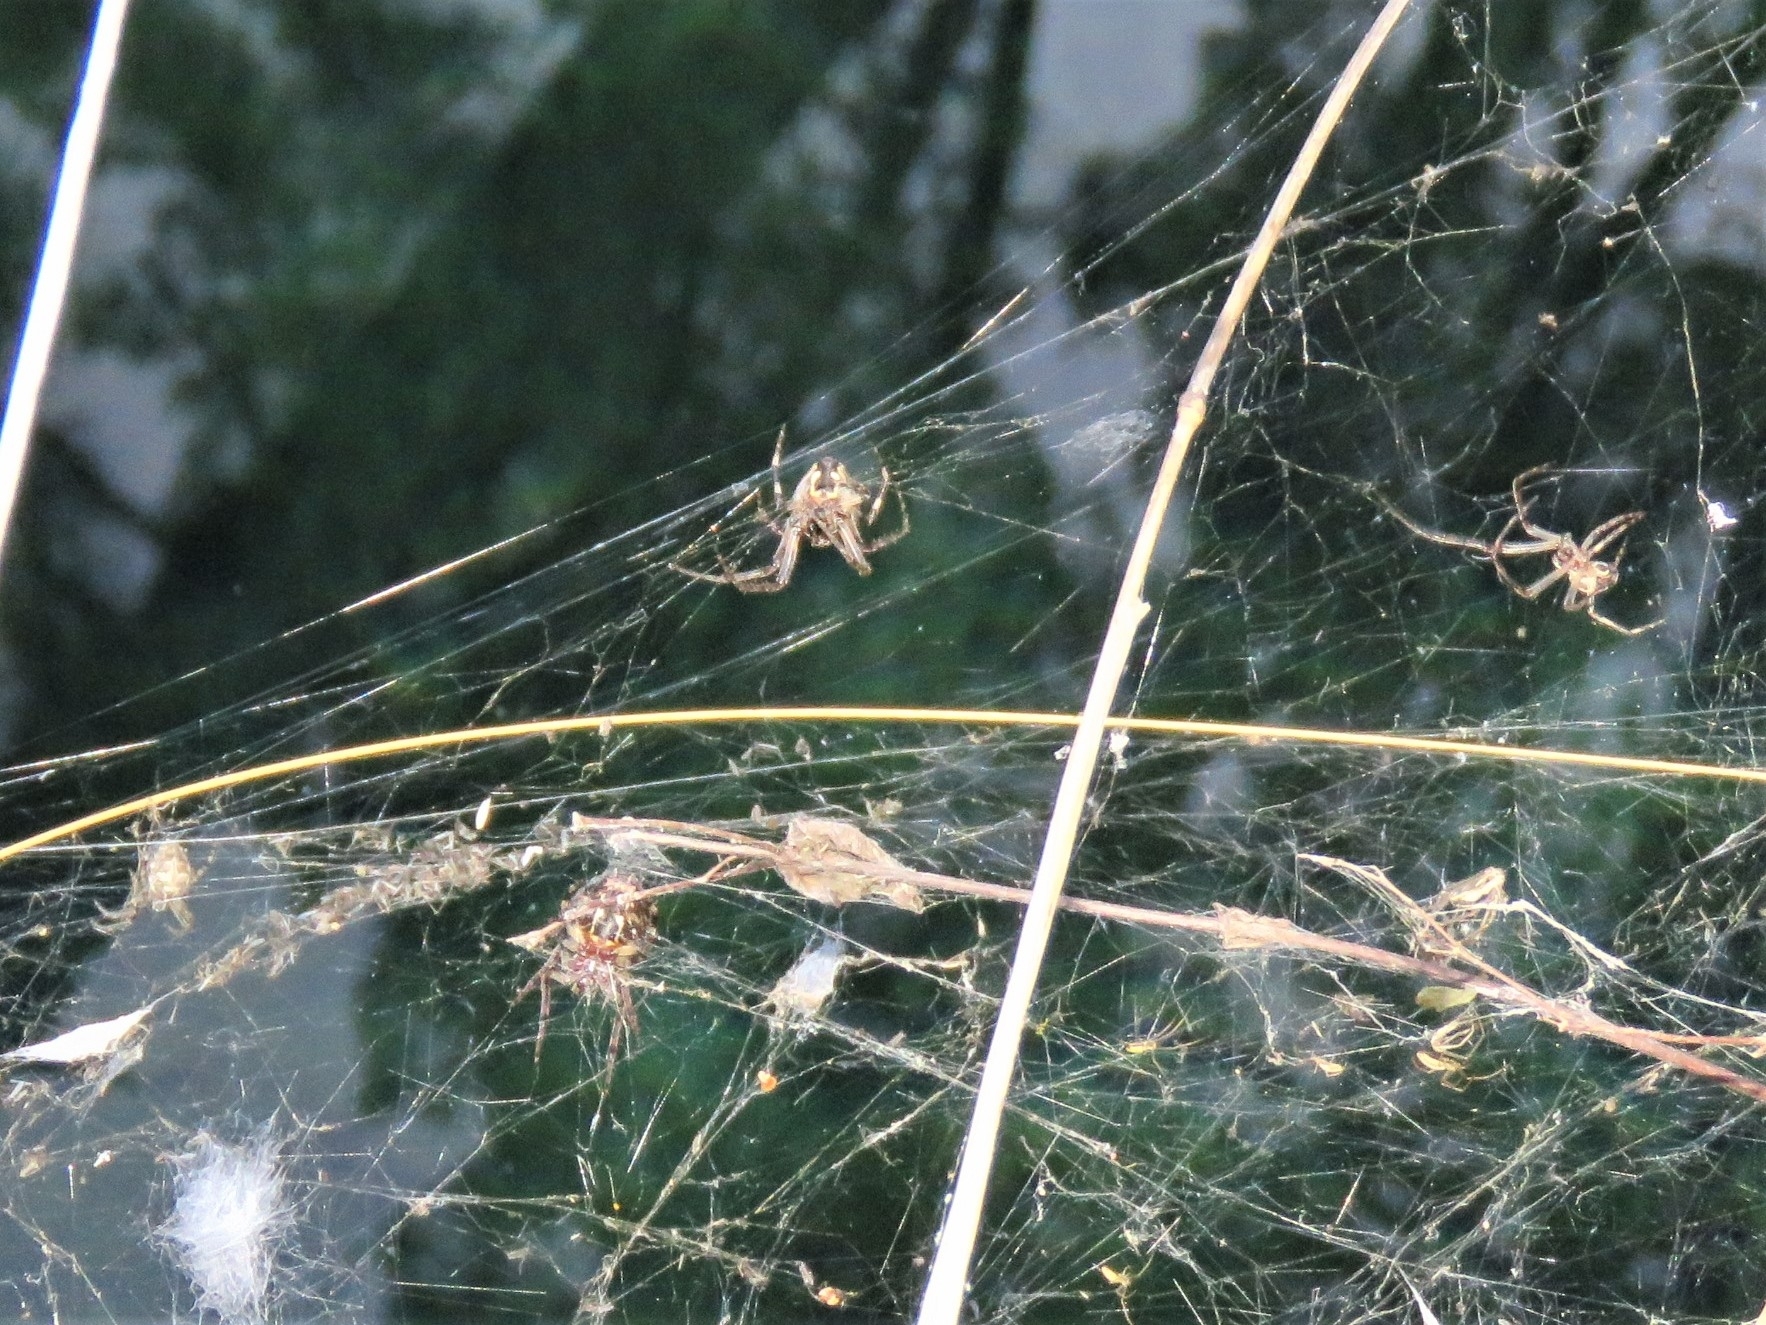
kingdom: Animalia
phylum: Arthropoda
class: Arachnida
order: Araneae
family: Araneidae
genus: Larinioides
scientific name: Larinioides sclopetarius
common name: Bridge orbweaver
